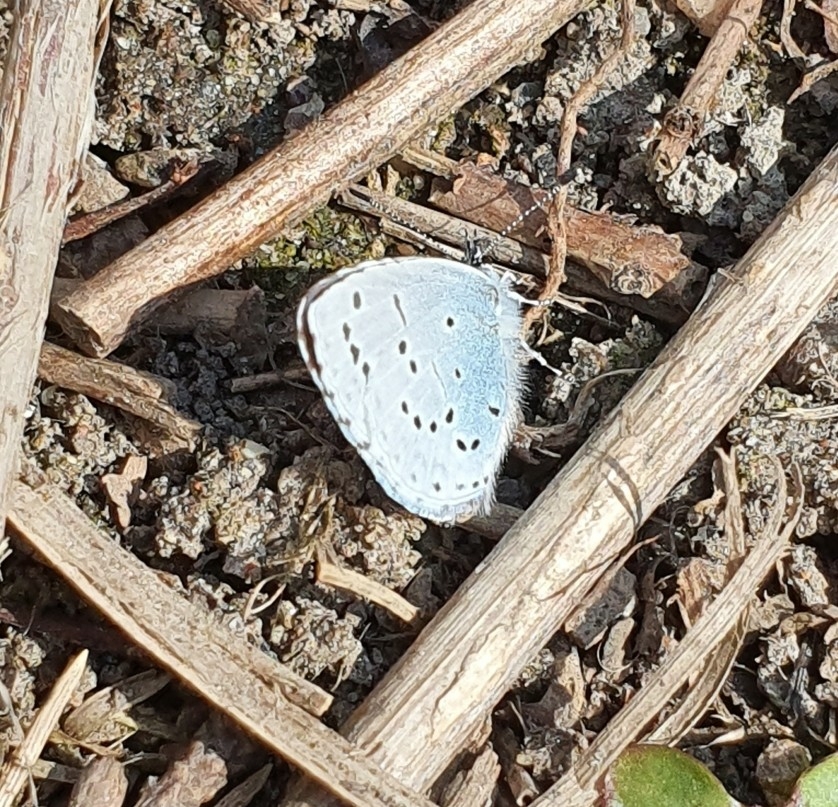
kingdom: Animalia
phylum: Arthropoda
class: Insecta
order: Lepidoptera
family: Lycaenidae
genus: Celastrina
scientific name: Celastrina argiolus
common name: Holly blue
